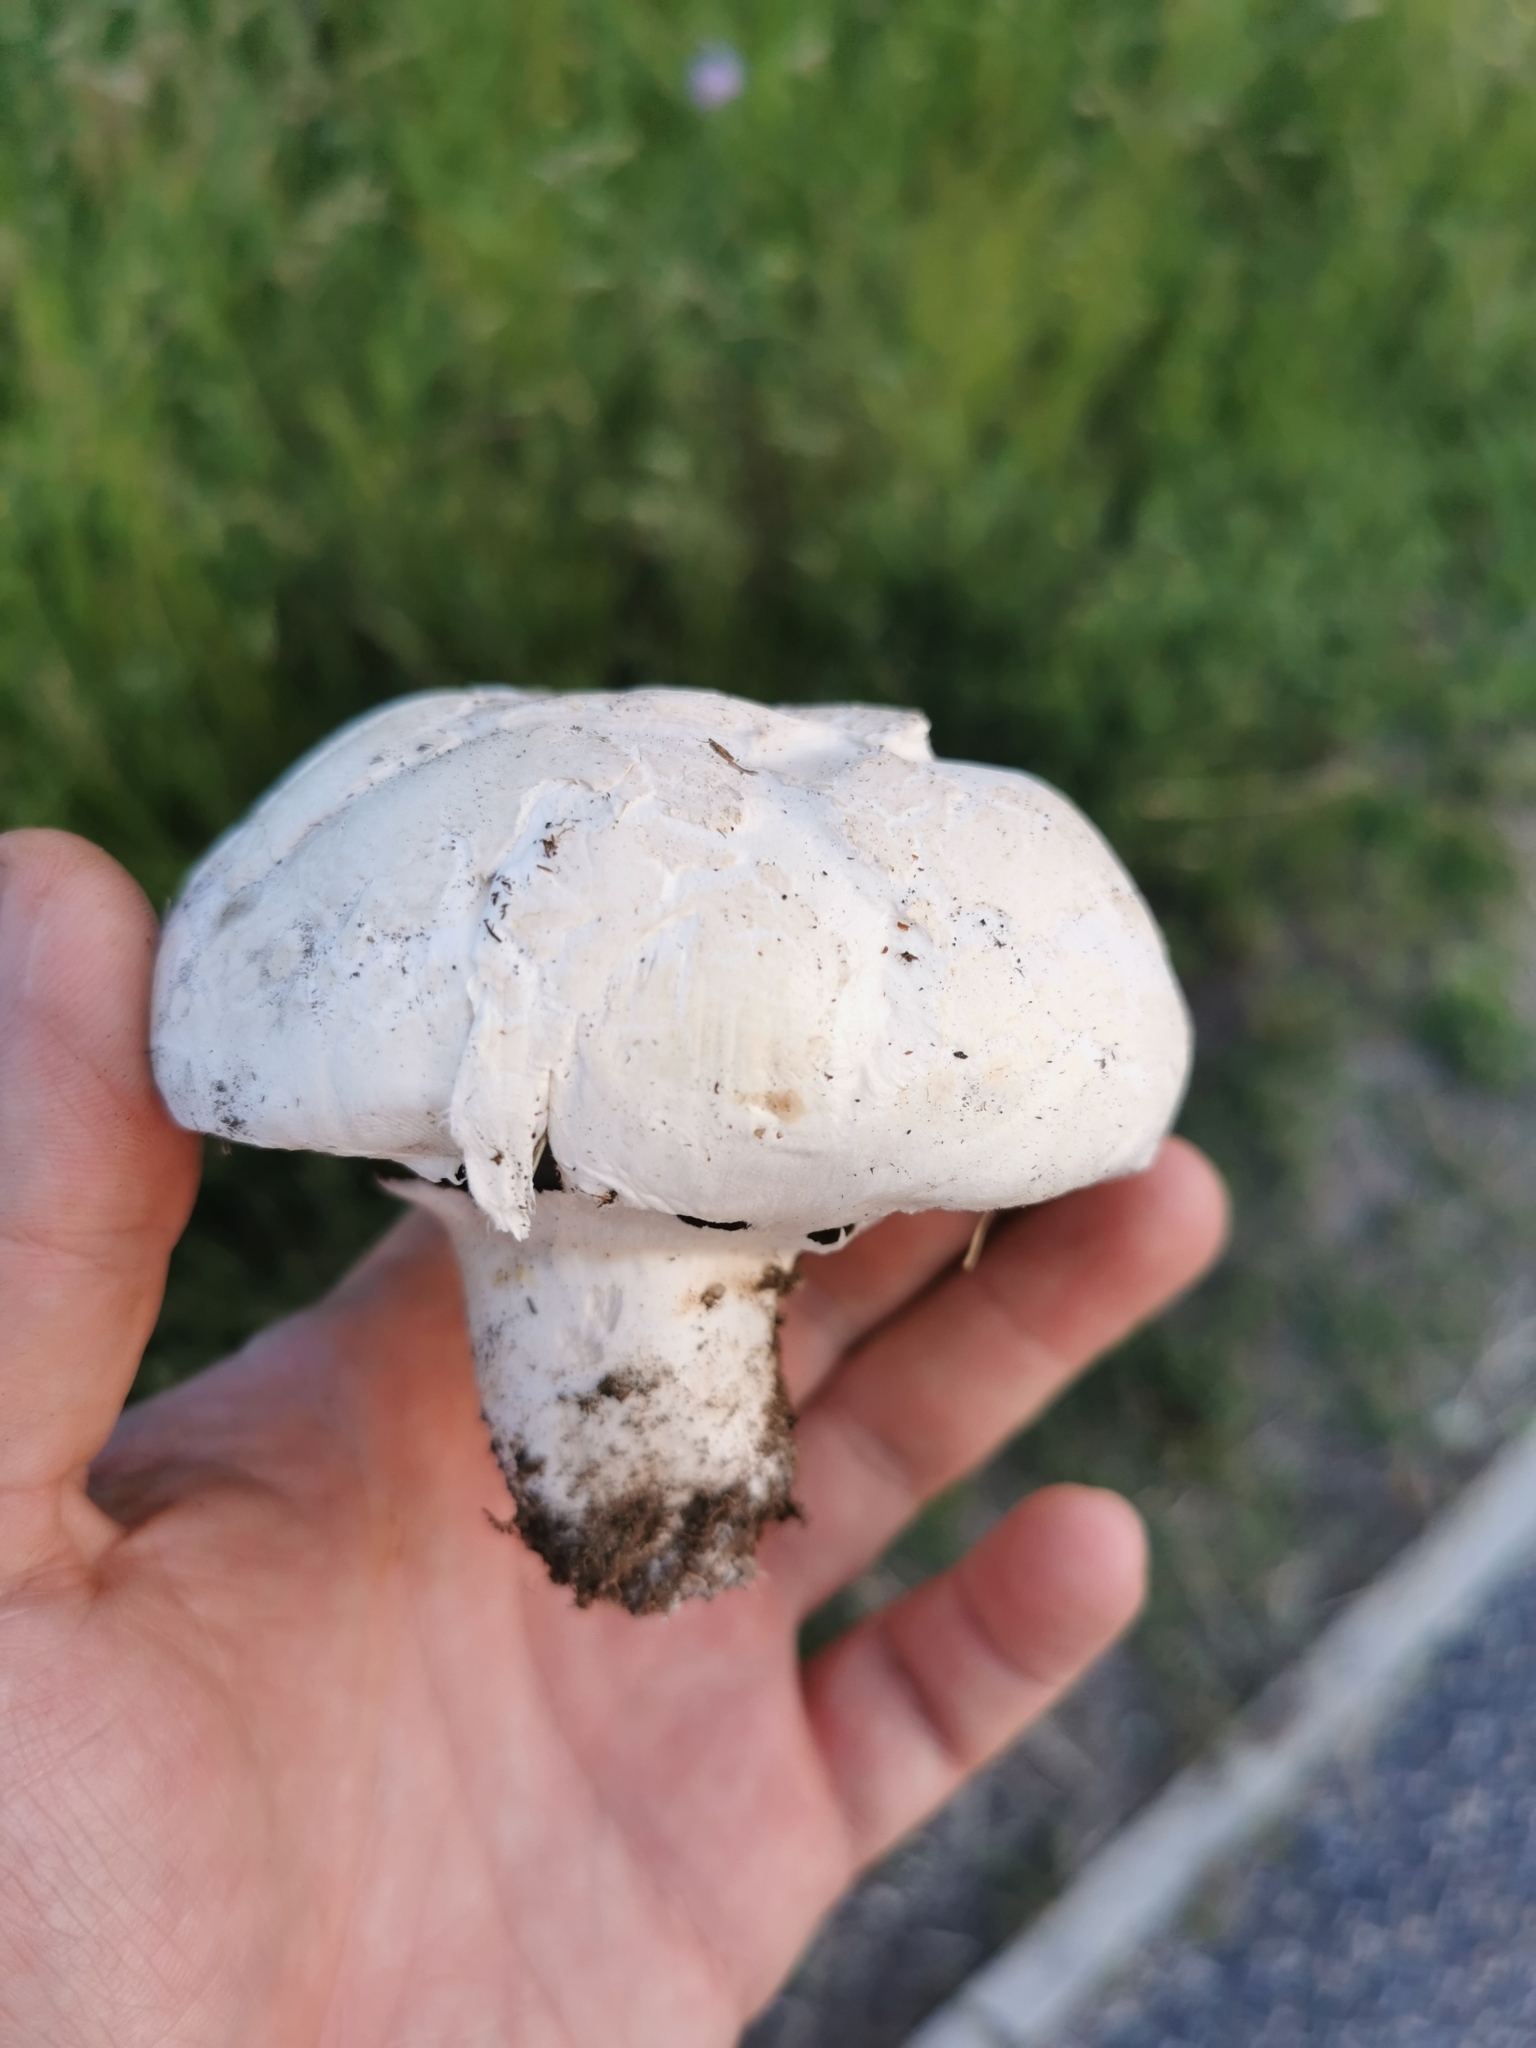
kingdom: Fungi
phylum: Basidiomycota
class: Agaricomycetes
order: Agaricales
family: Agaricaceae
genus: Agaricus
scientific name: Agaricus campestris
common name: Field mushroom
